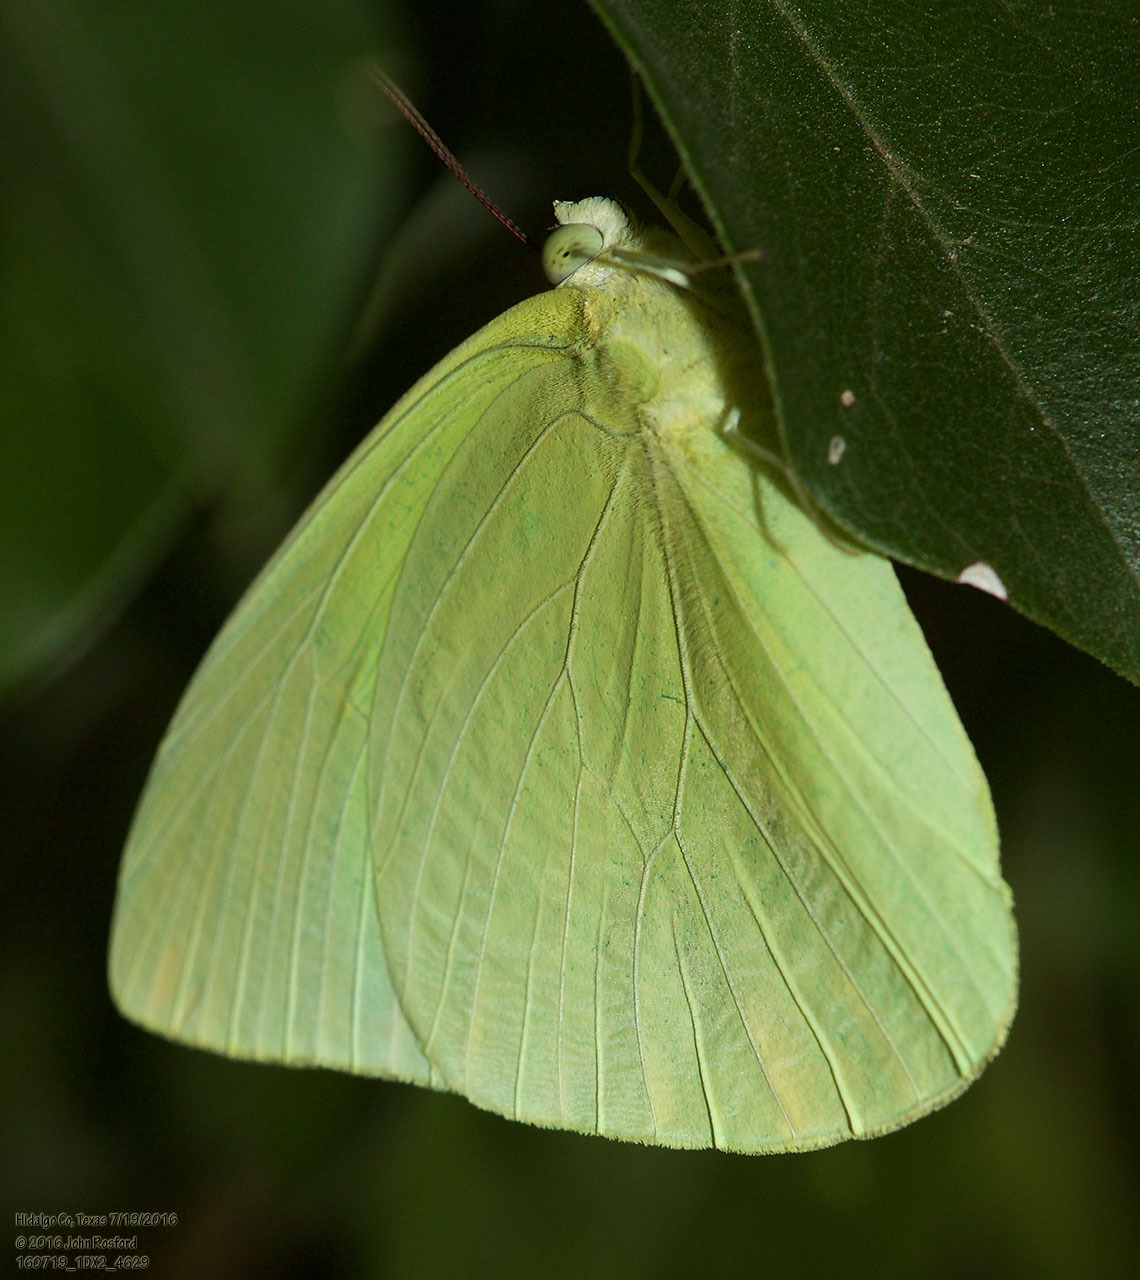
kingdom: Animalia
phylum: Arthropoda
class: Insecta
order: Lepidoptera
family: Pieridae
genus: Aphrissa
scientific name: Aphrissa statira
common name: Statira sulphur
